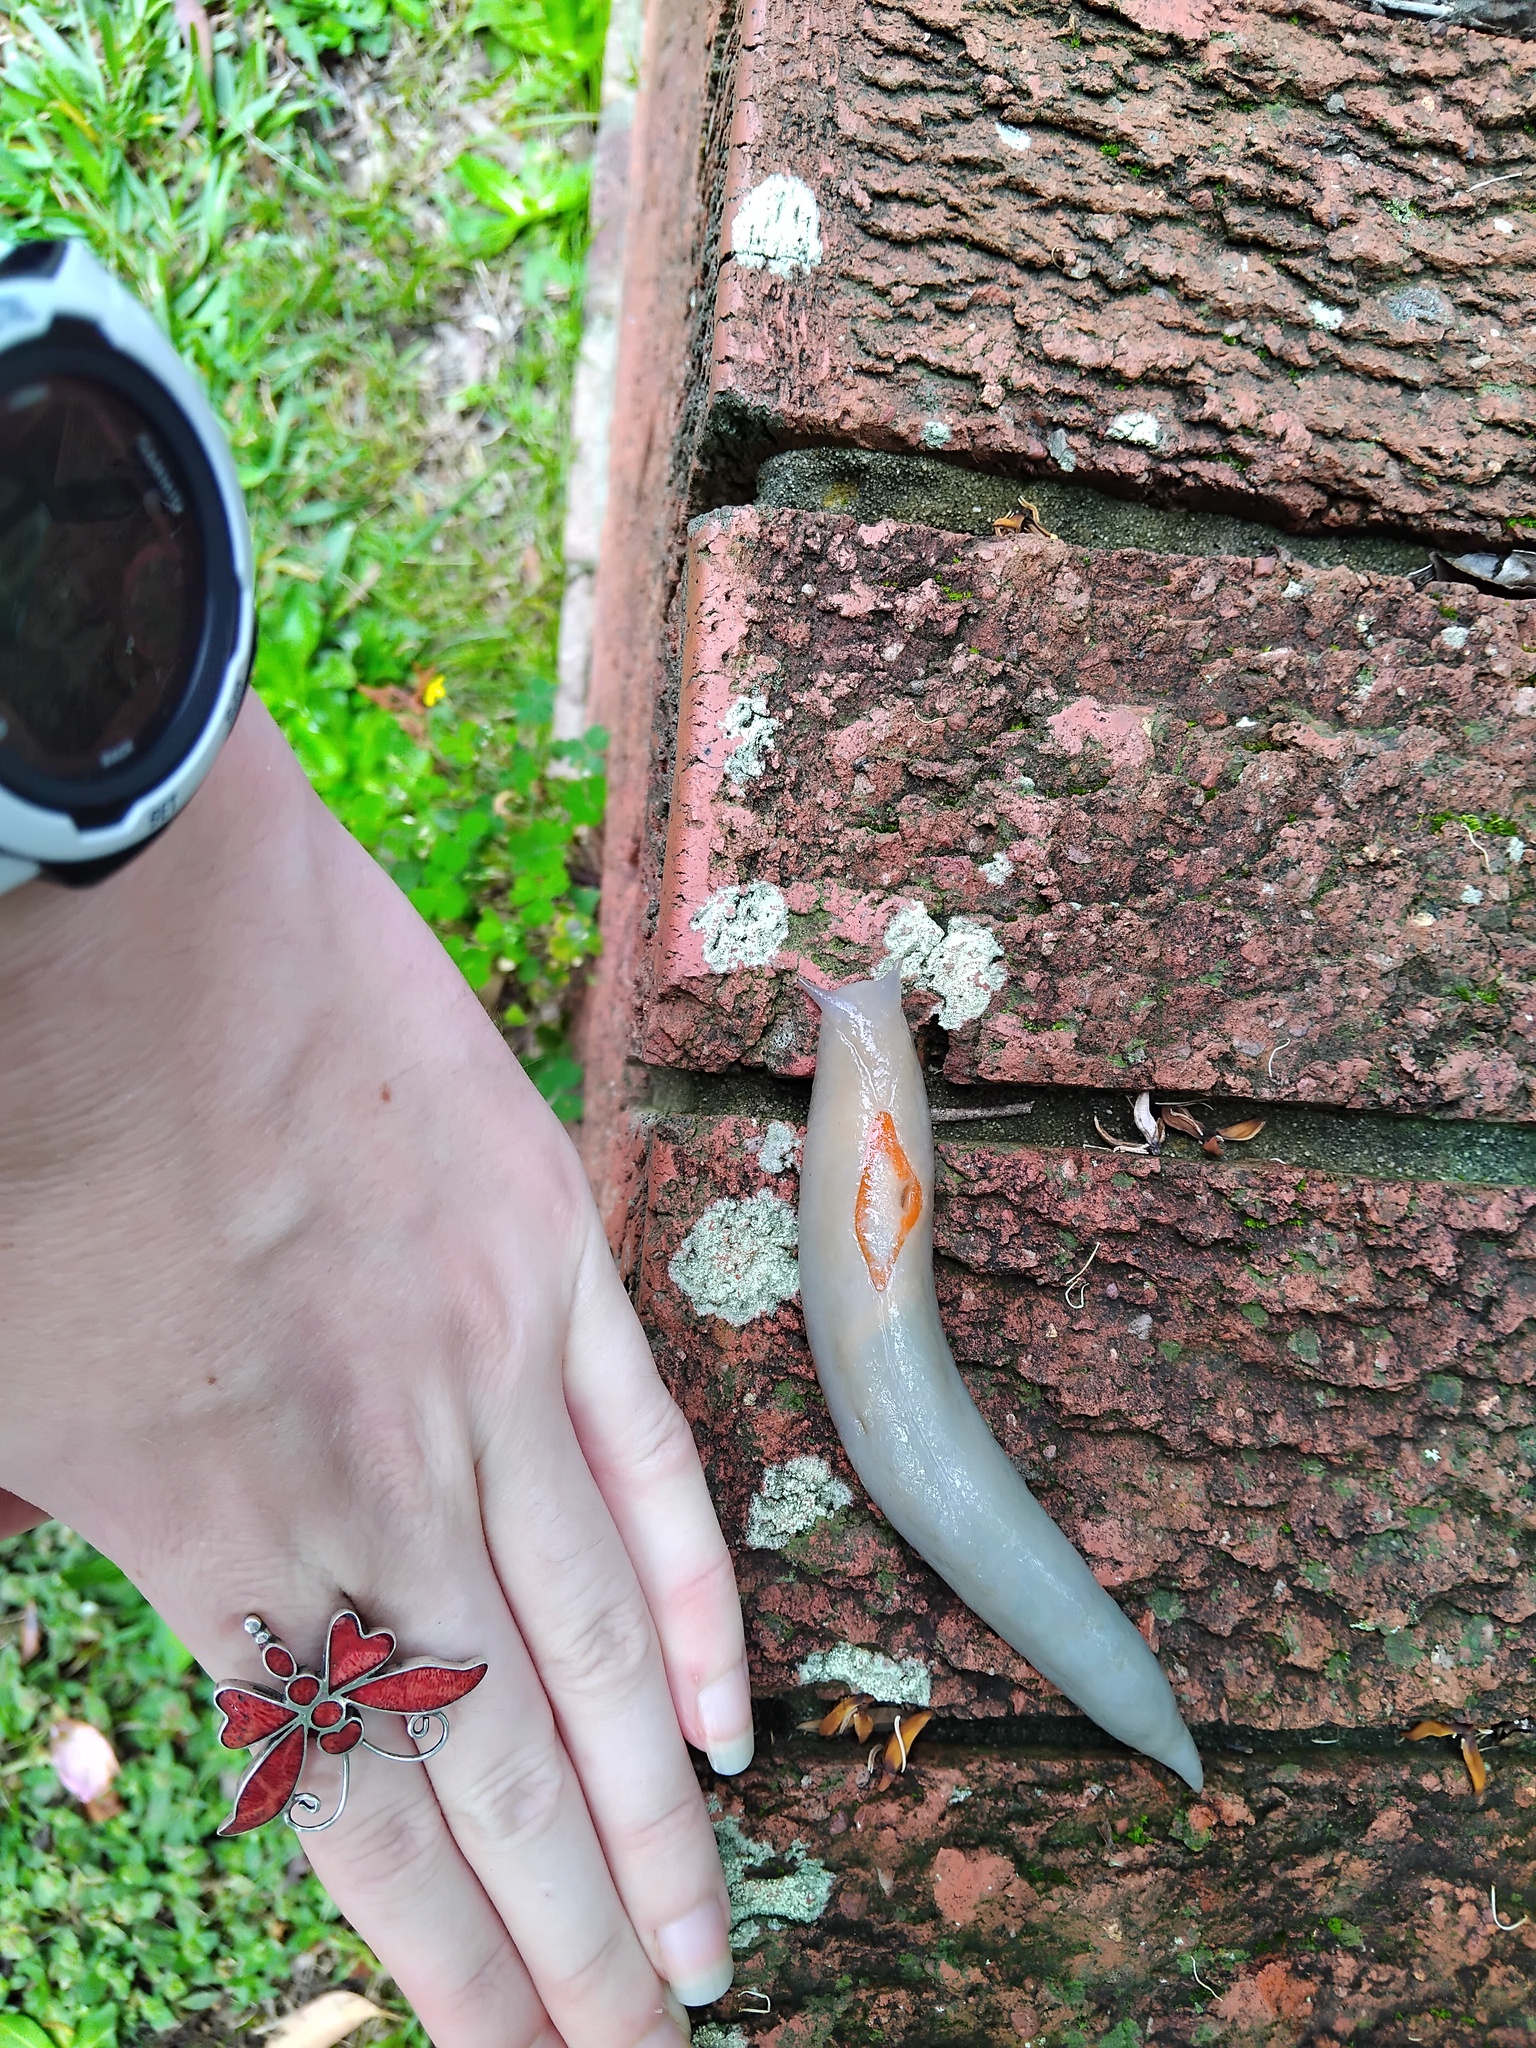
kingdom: Animalia
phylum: Mollusca
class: Gastropoda
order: Stylommatophora
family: Athoracophoridae
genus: Triboniophorus
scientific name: Triboniophorus graeffei
